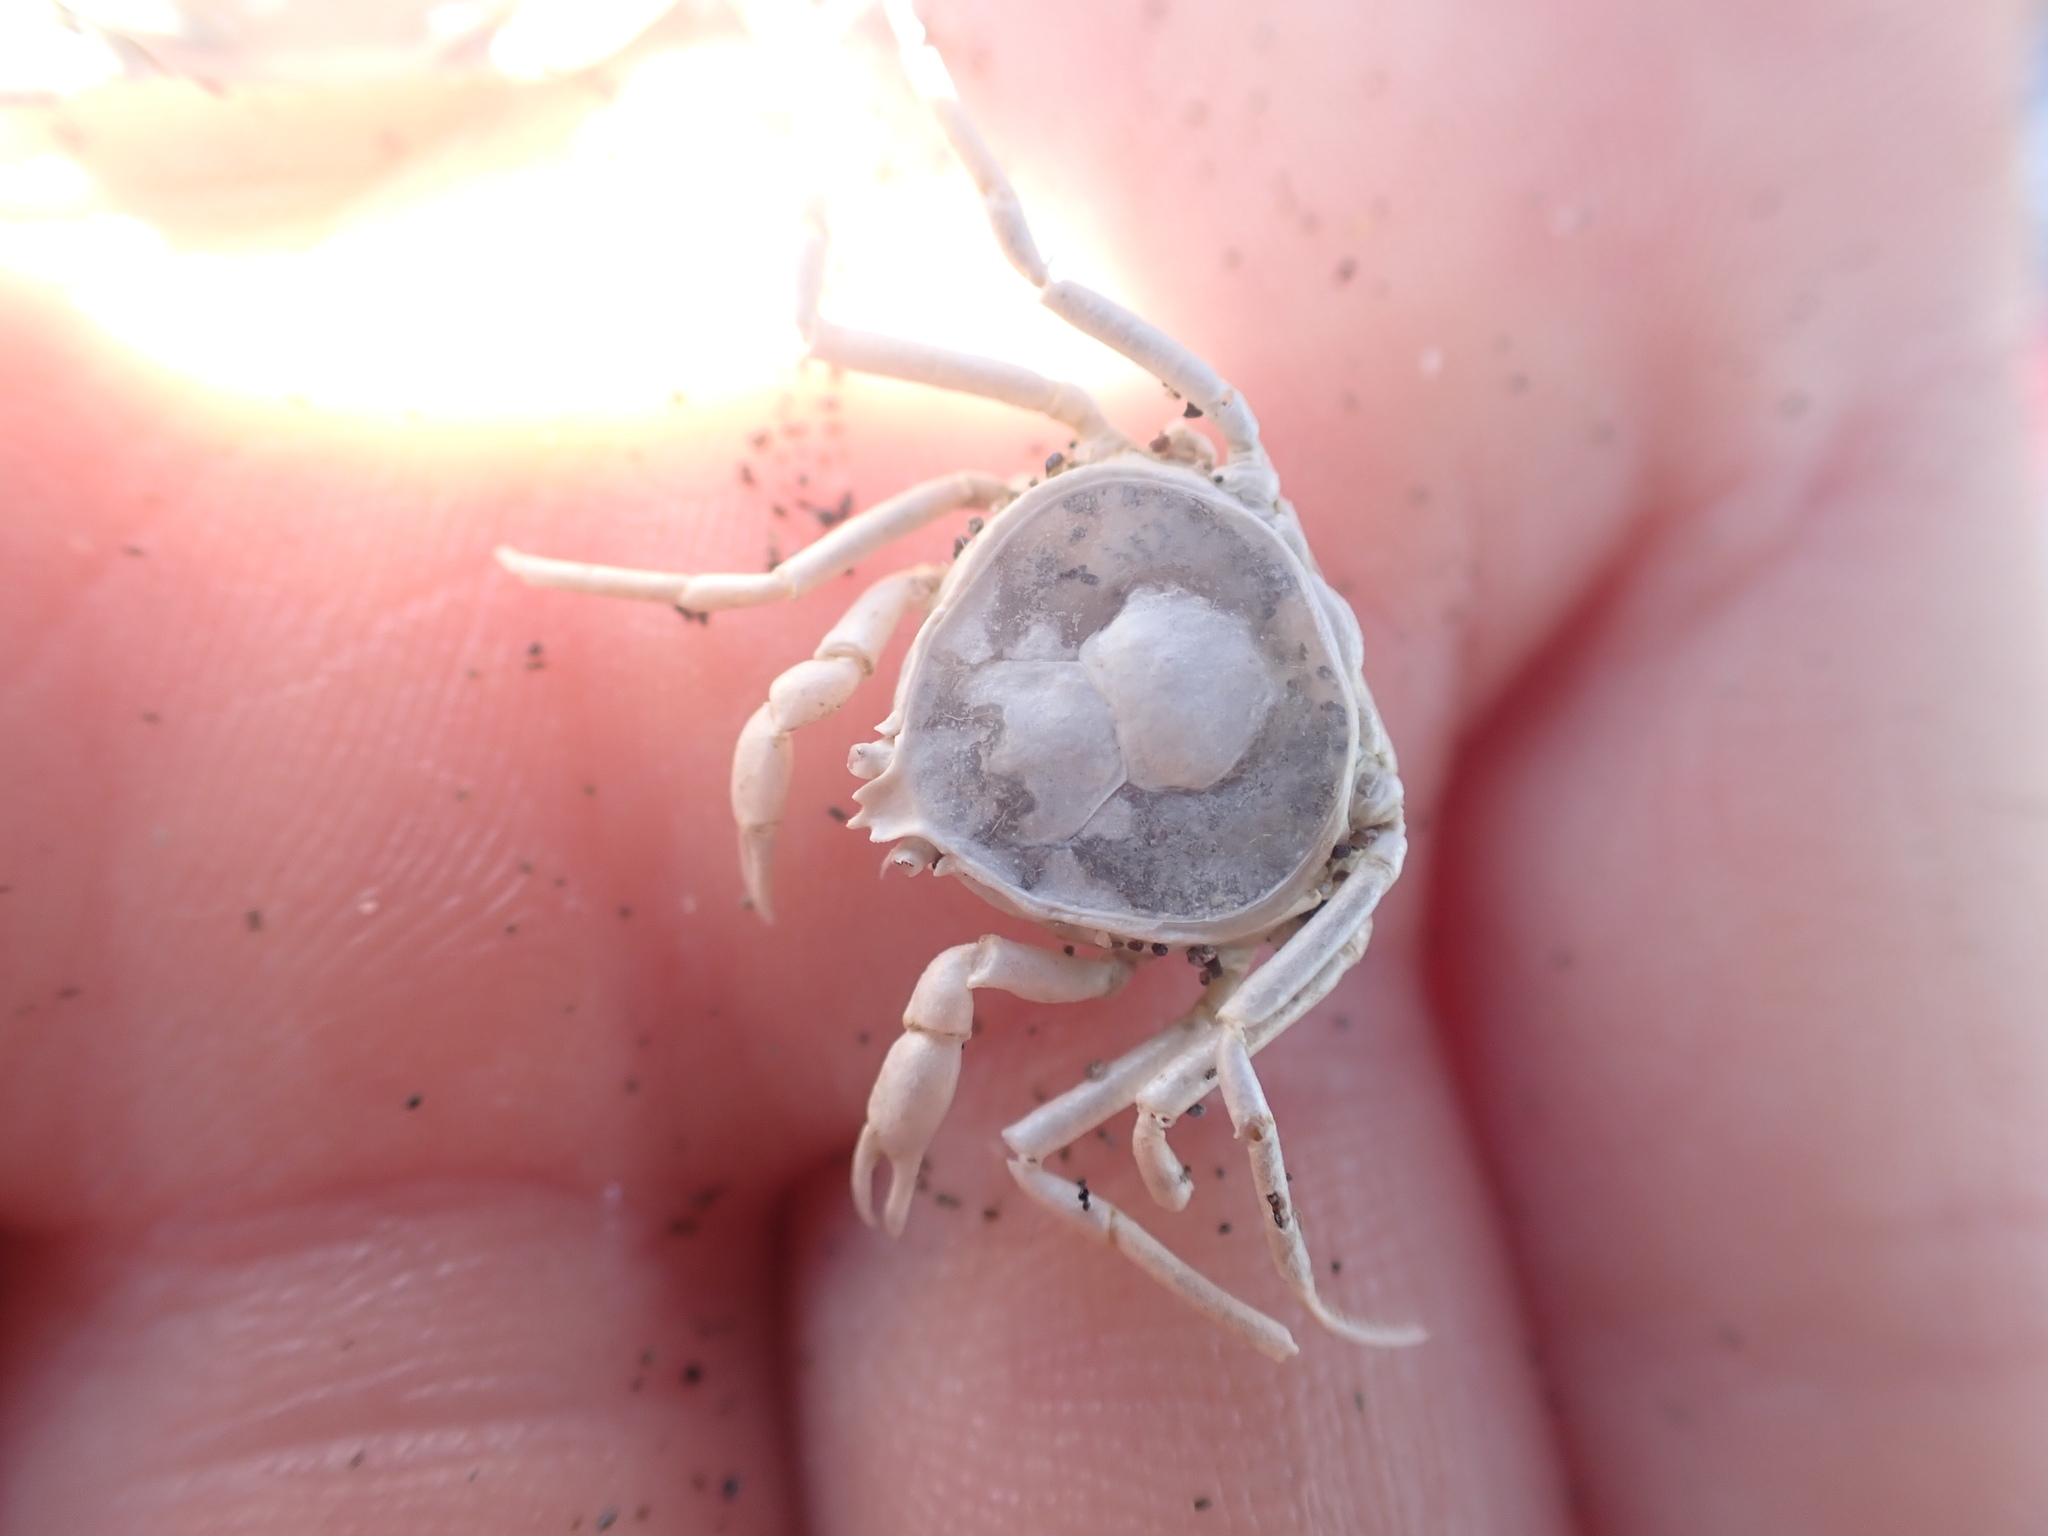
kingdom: Animalia
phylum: Arthropoda
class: Malacostraca
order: Decapoda
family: Hymenosomatidae
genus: Halicarcinus
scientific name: Halicarcinus whitei
